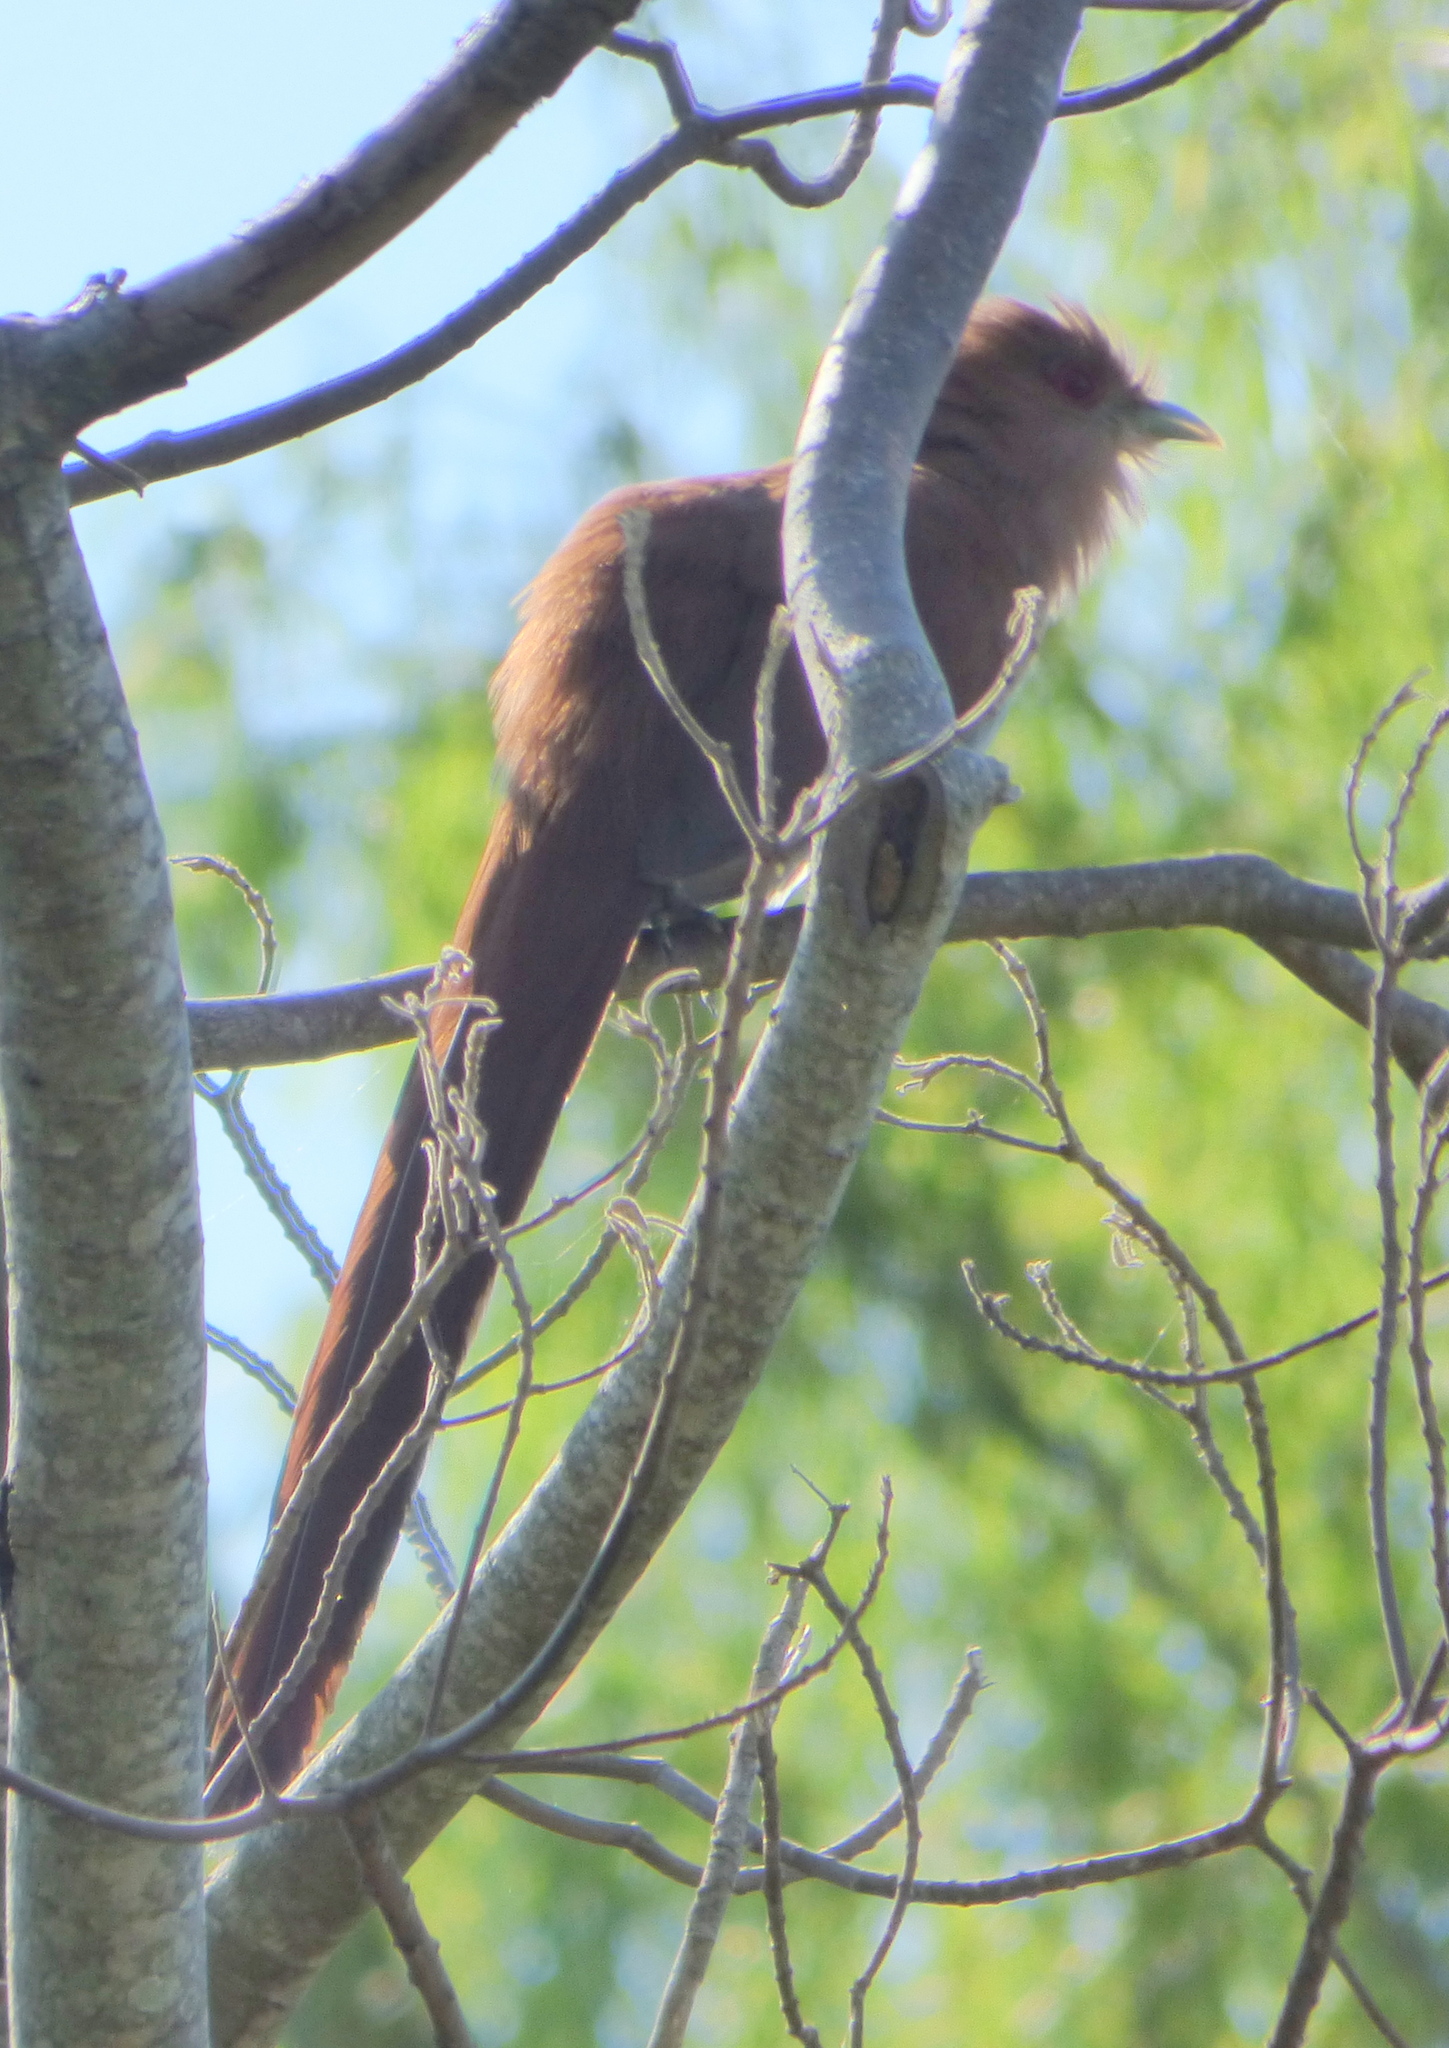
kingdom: Animalia
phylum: Chordata
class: Aves
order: Cuculiformes
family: Cuculidae
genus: Piaya
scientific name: Piaya cayana
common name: Squirrel cuckoo
